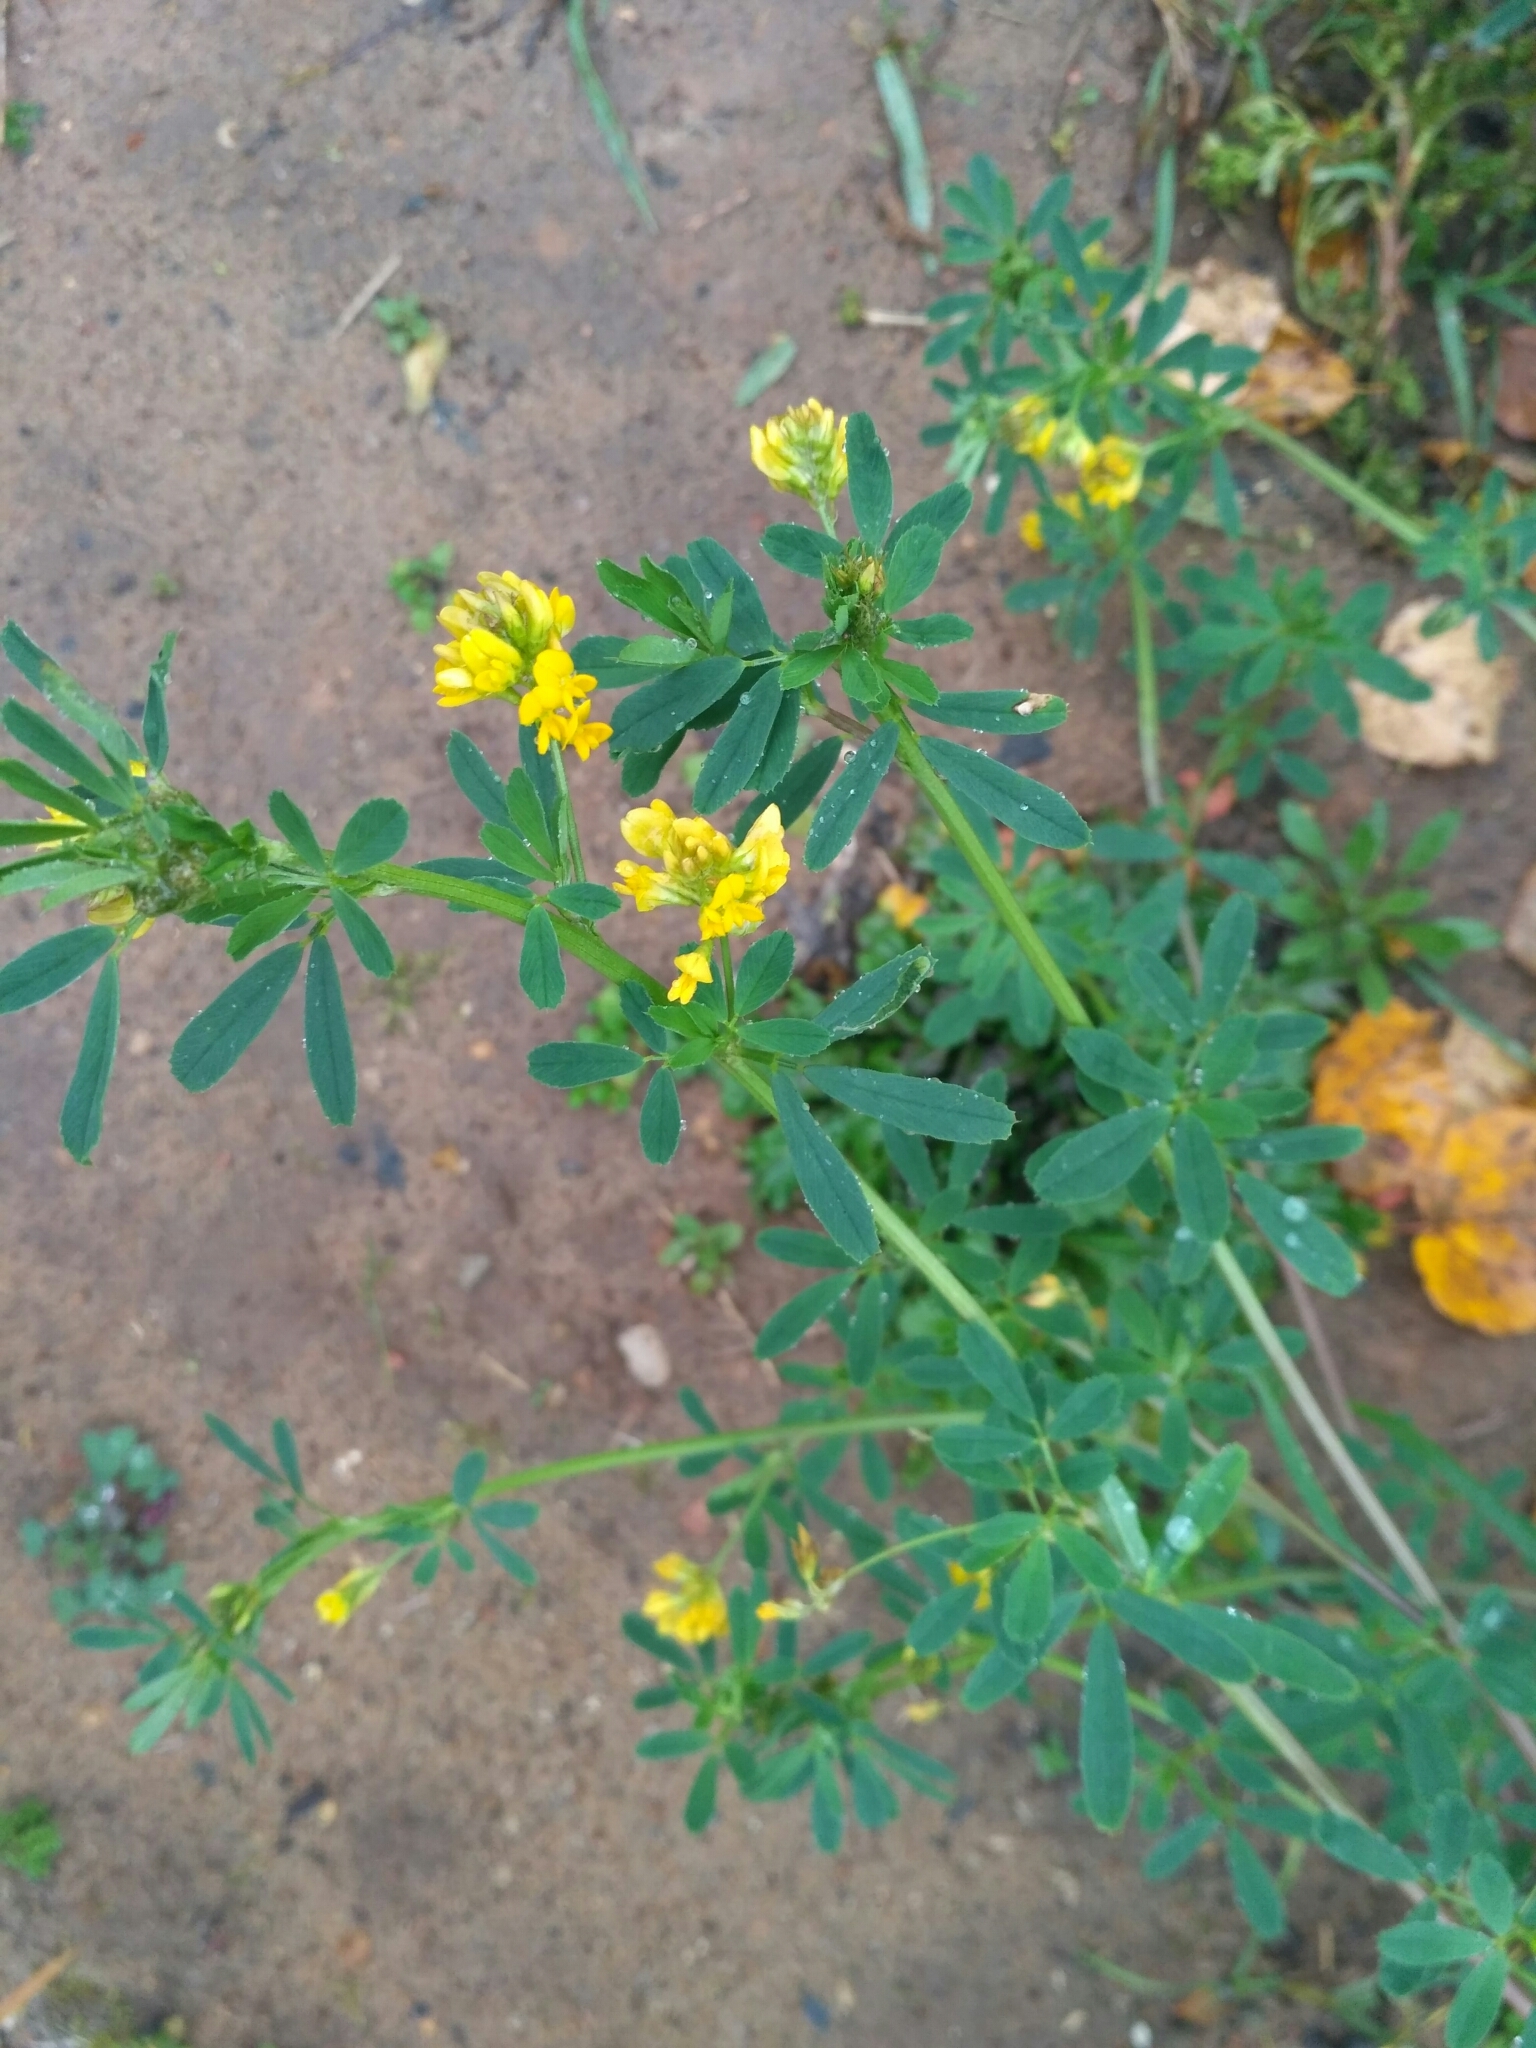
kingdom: Plantae
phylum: Tracheophyta
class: Magnoliopsida
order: Fabales
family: Fabaceae
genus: Medicago
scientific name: Medicago falcata
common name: Sickle medick
